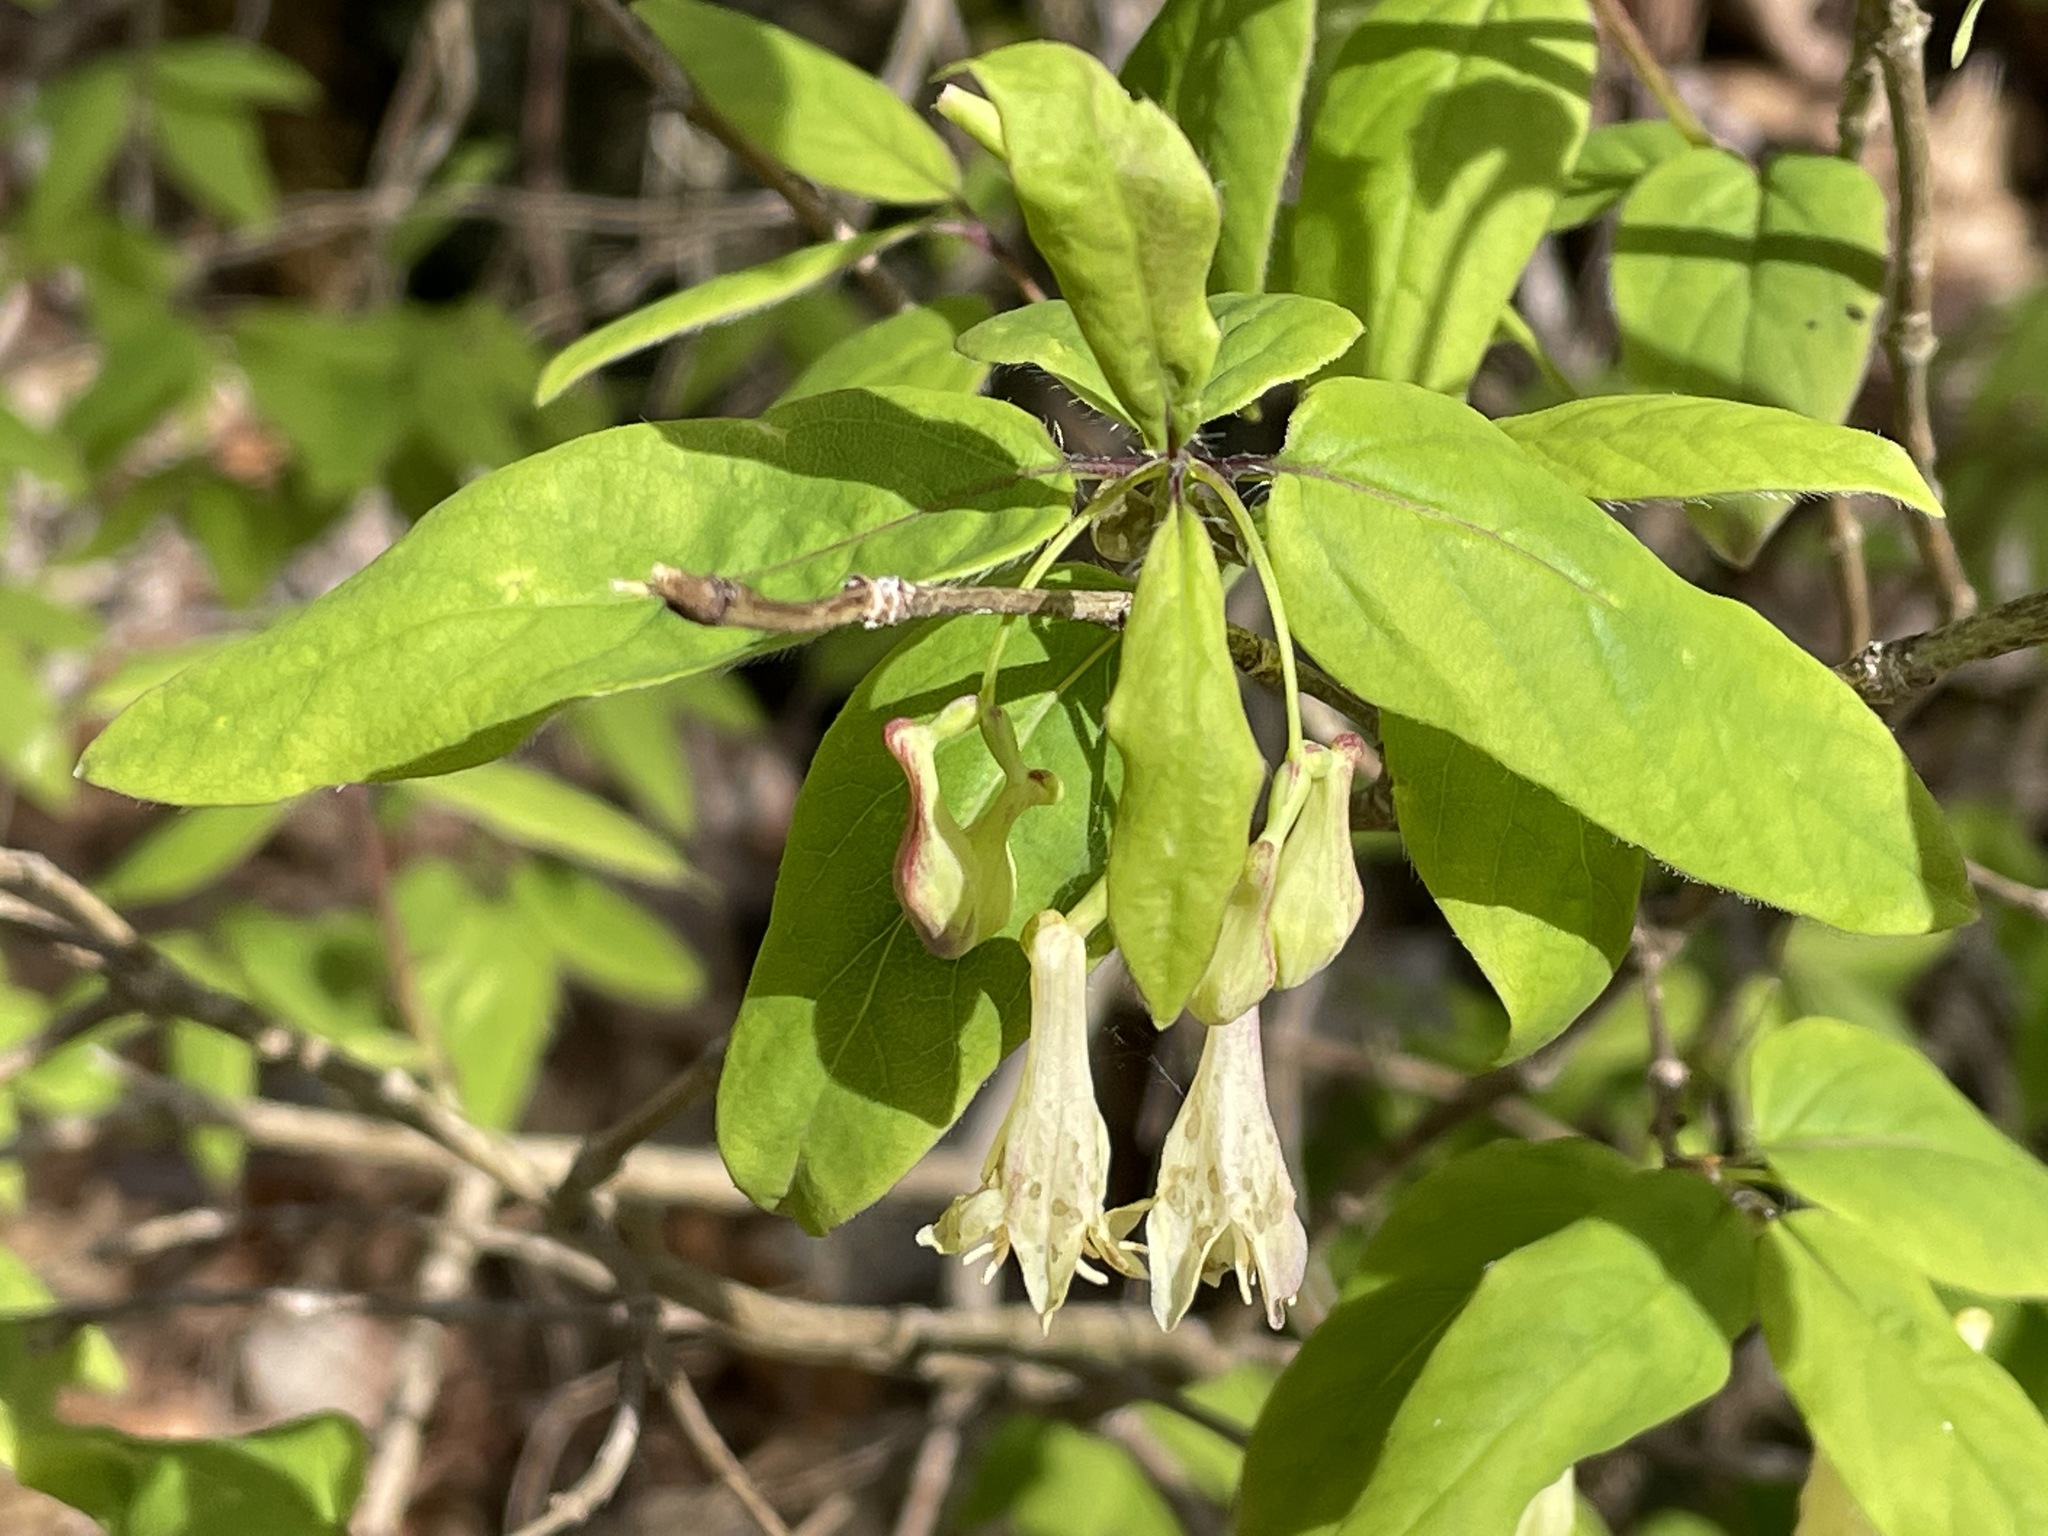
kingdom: Plantae
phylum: Tracheophyta
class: Magnoliopsida
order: Dipsacales
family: Caprifoliaceae
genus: Lonicera
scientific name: Lonicera canadensis
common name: American fly-honeysuckle
